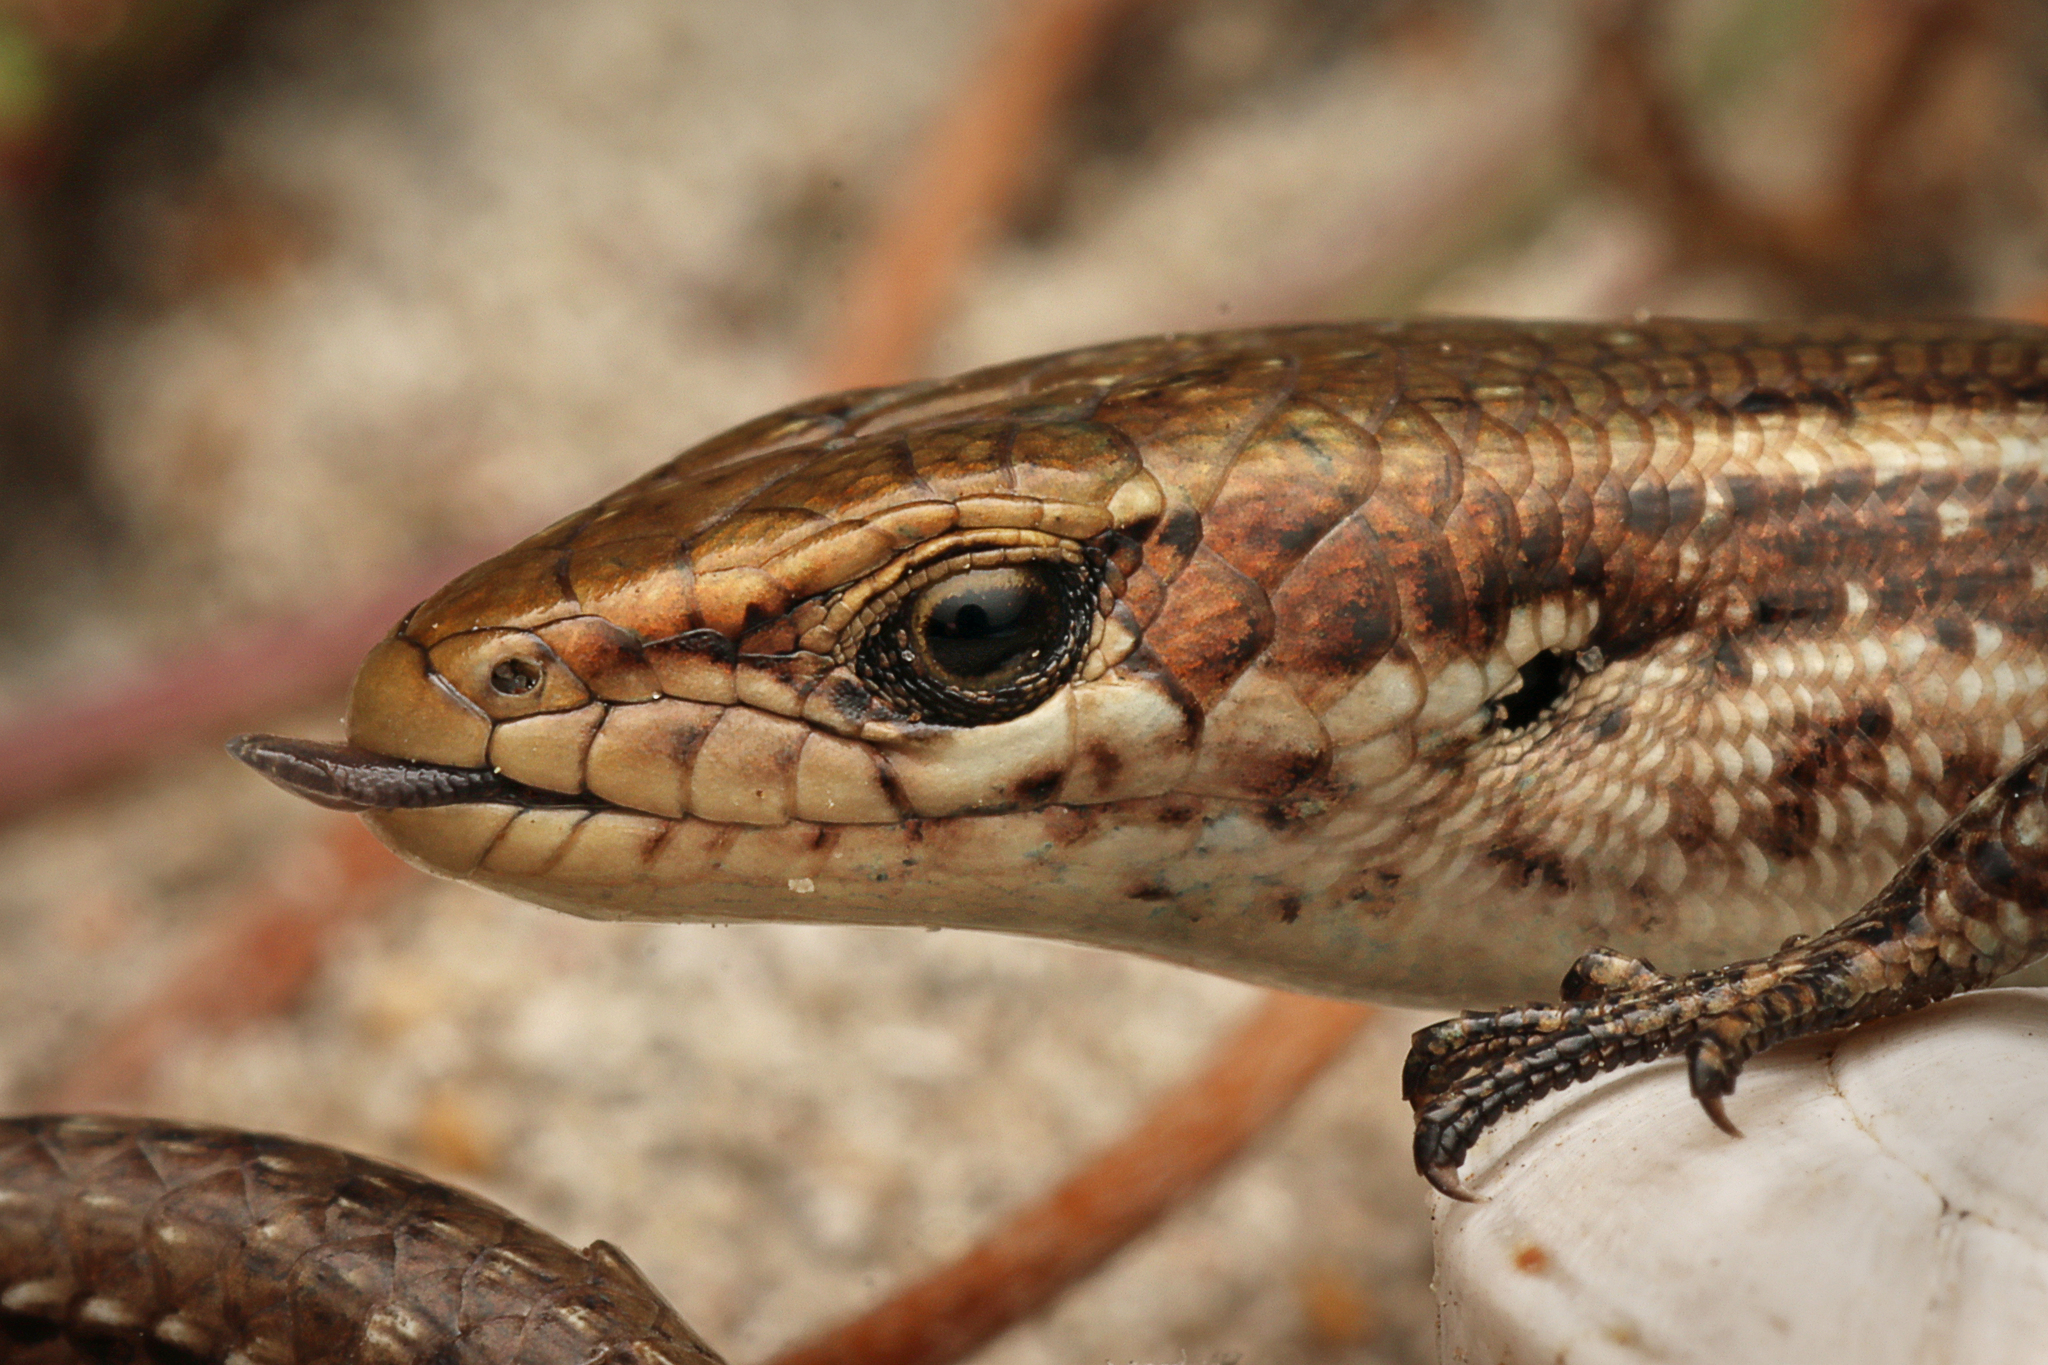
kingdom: Animalia
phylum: Chordata
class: Squamata
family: Scincidae
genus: Pseudemoia
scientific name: Pseudemoia entrecasteauxii
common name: Entrecasteaux's skink
